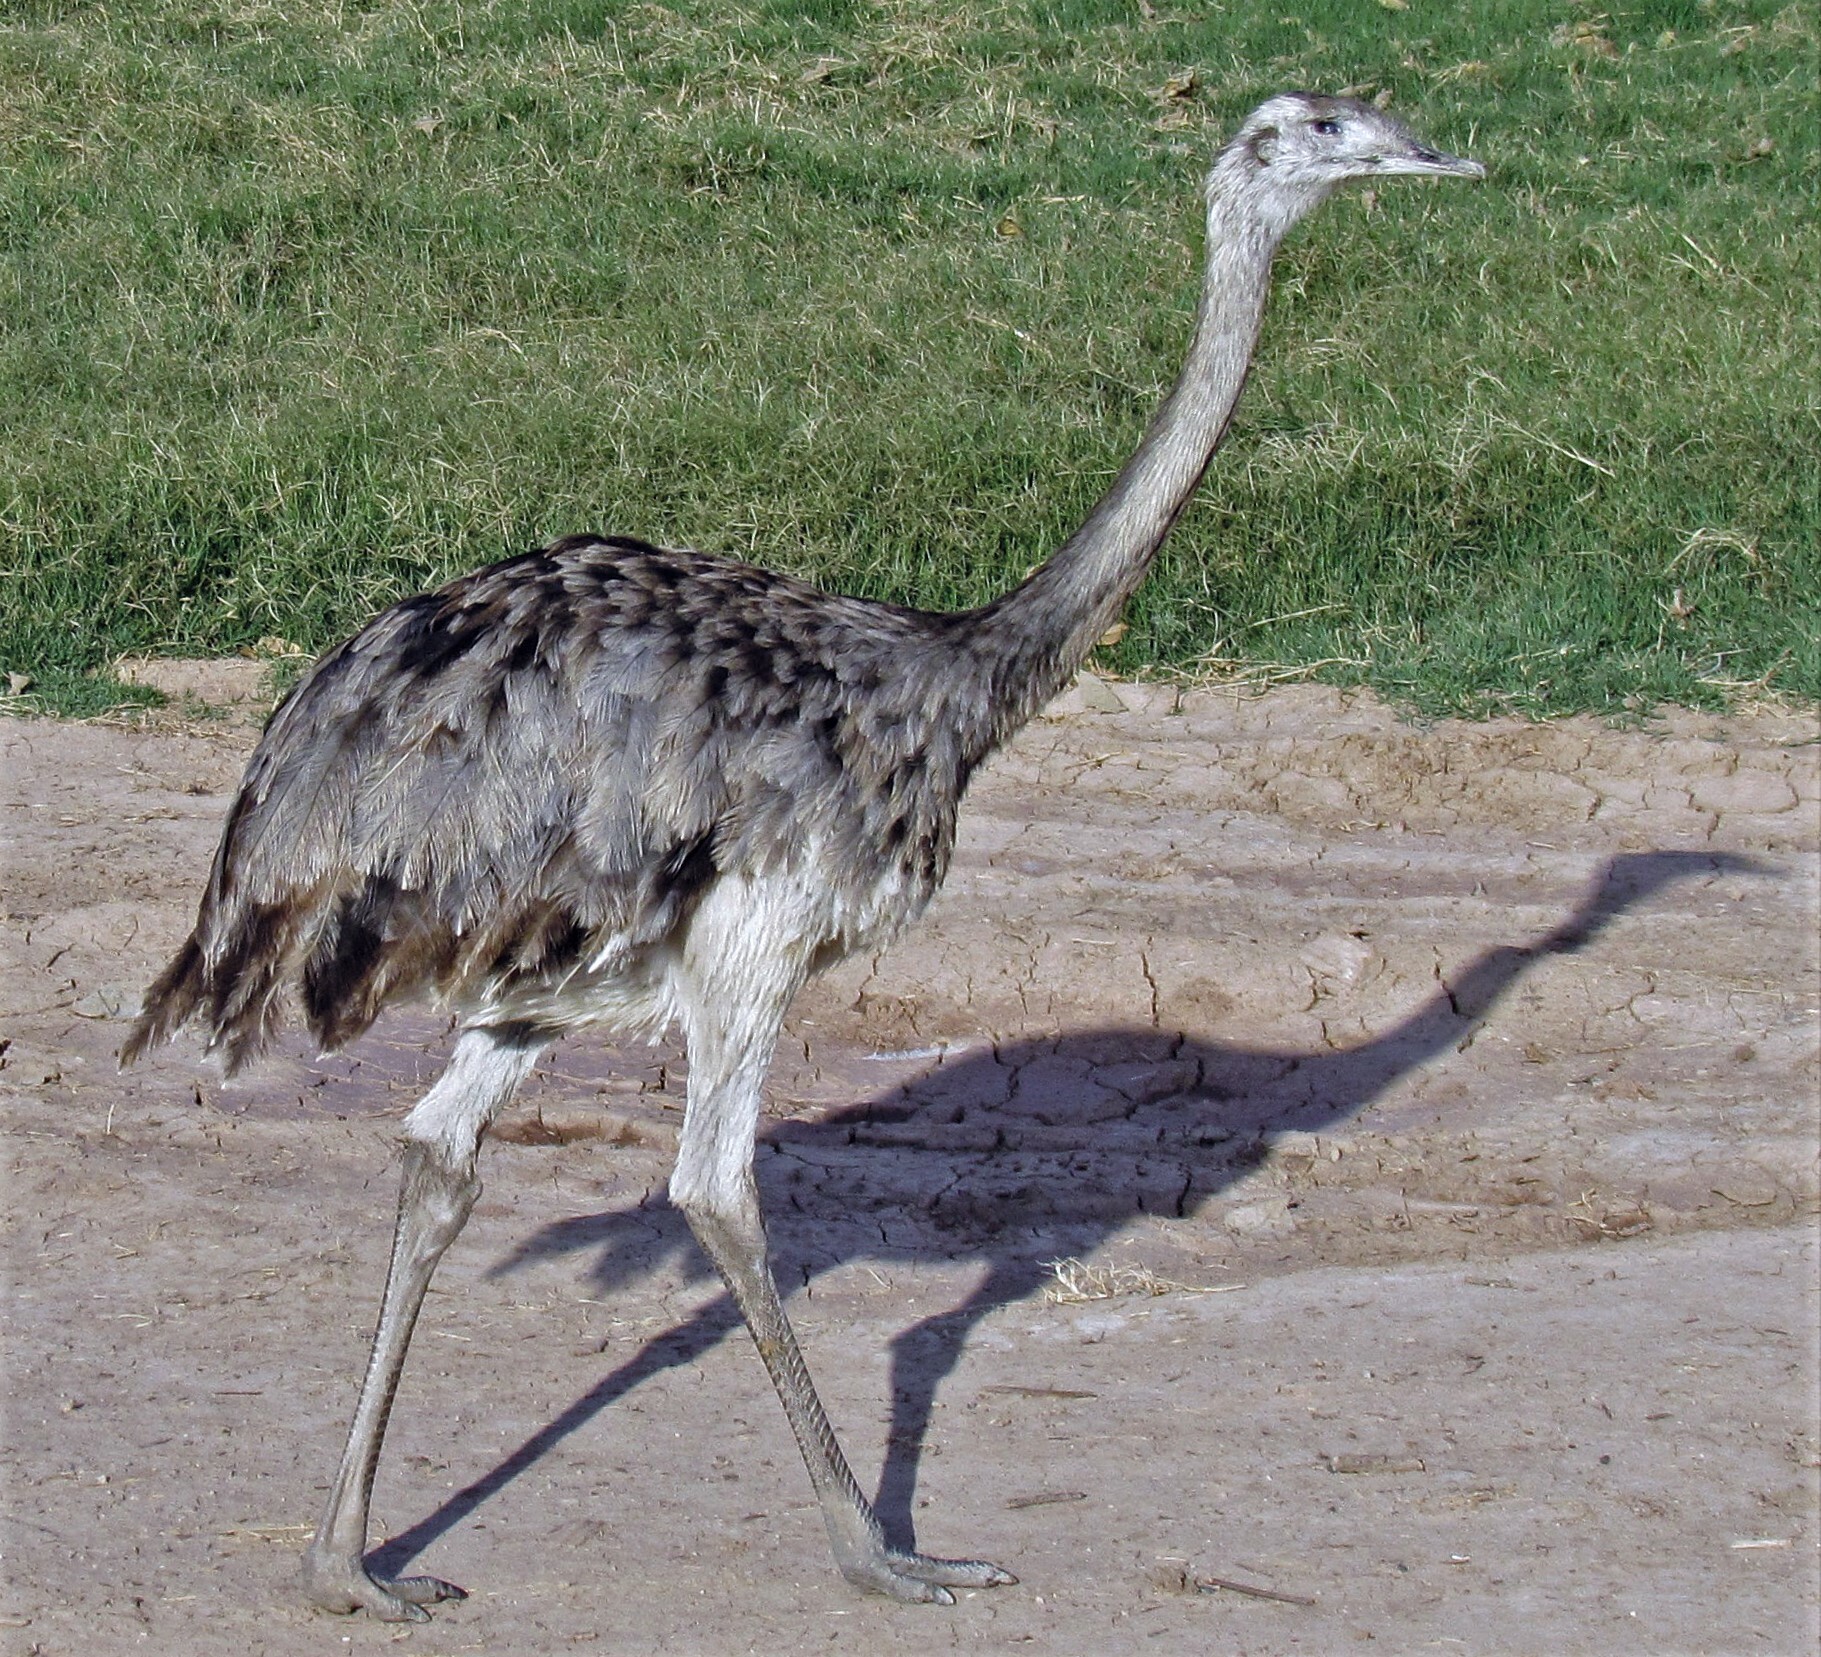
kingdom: Animalia
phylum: Chordata
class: Aves
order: Rheiformes
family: Rheidae
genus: Rhea
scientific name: Rhea americana
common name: Greater rhea
